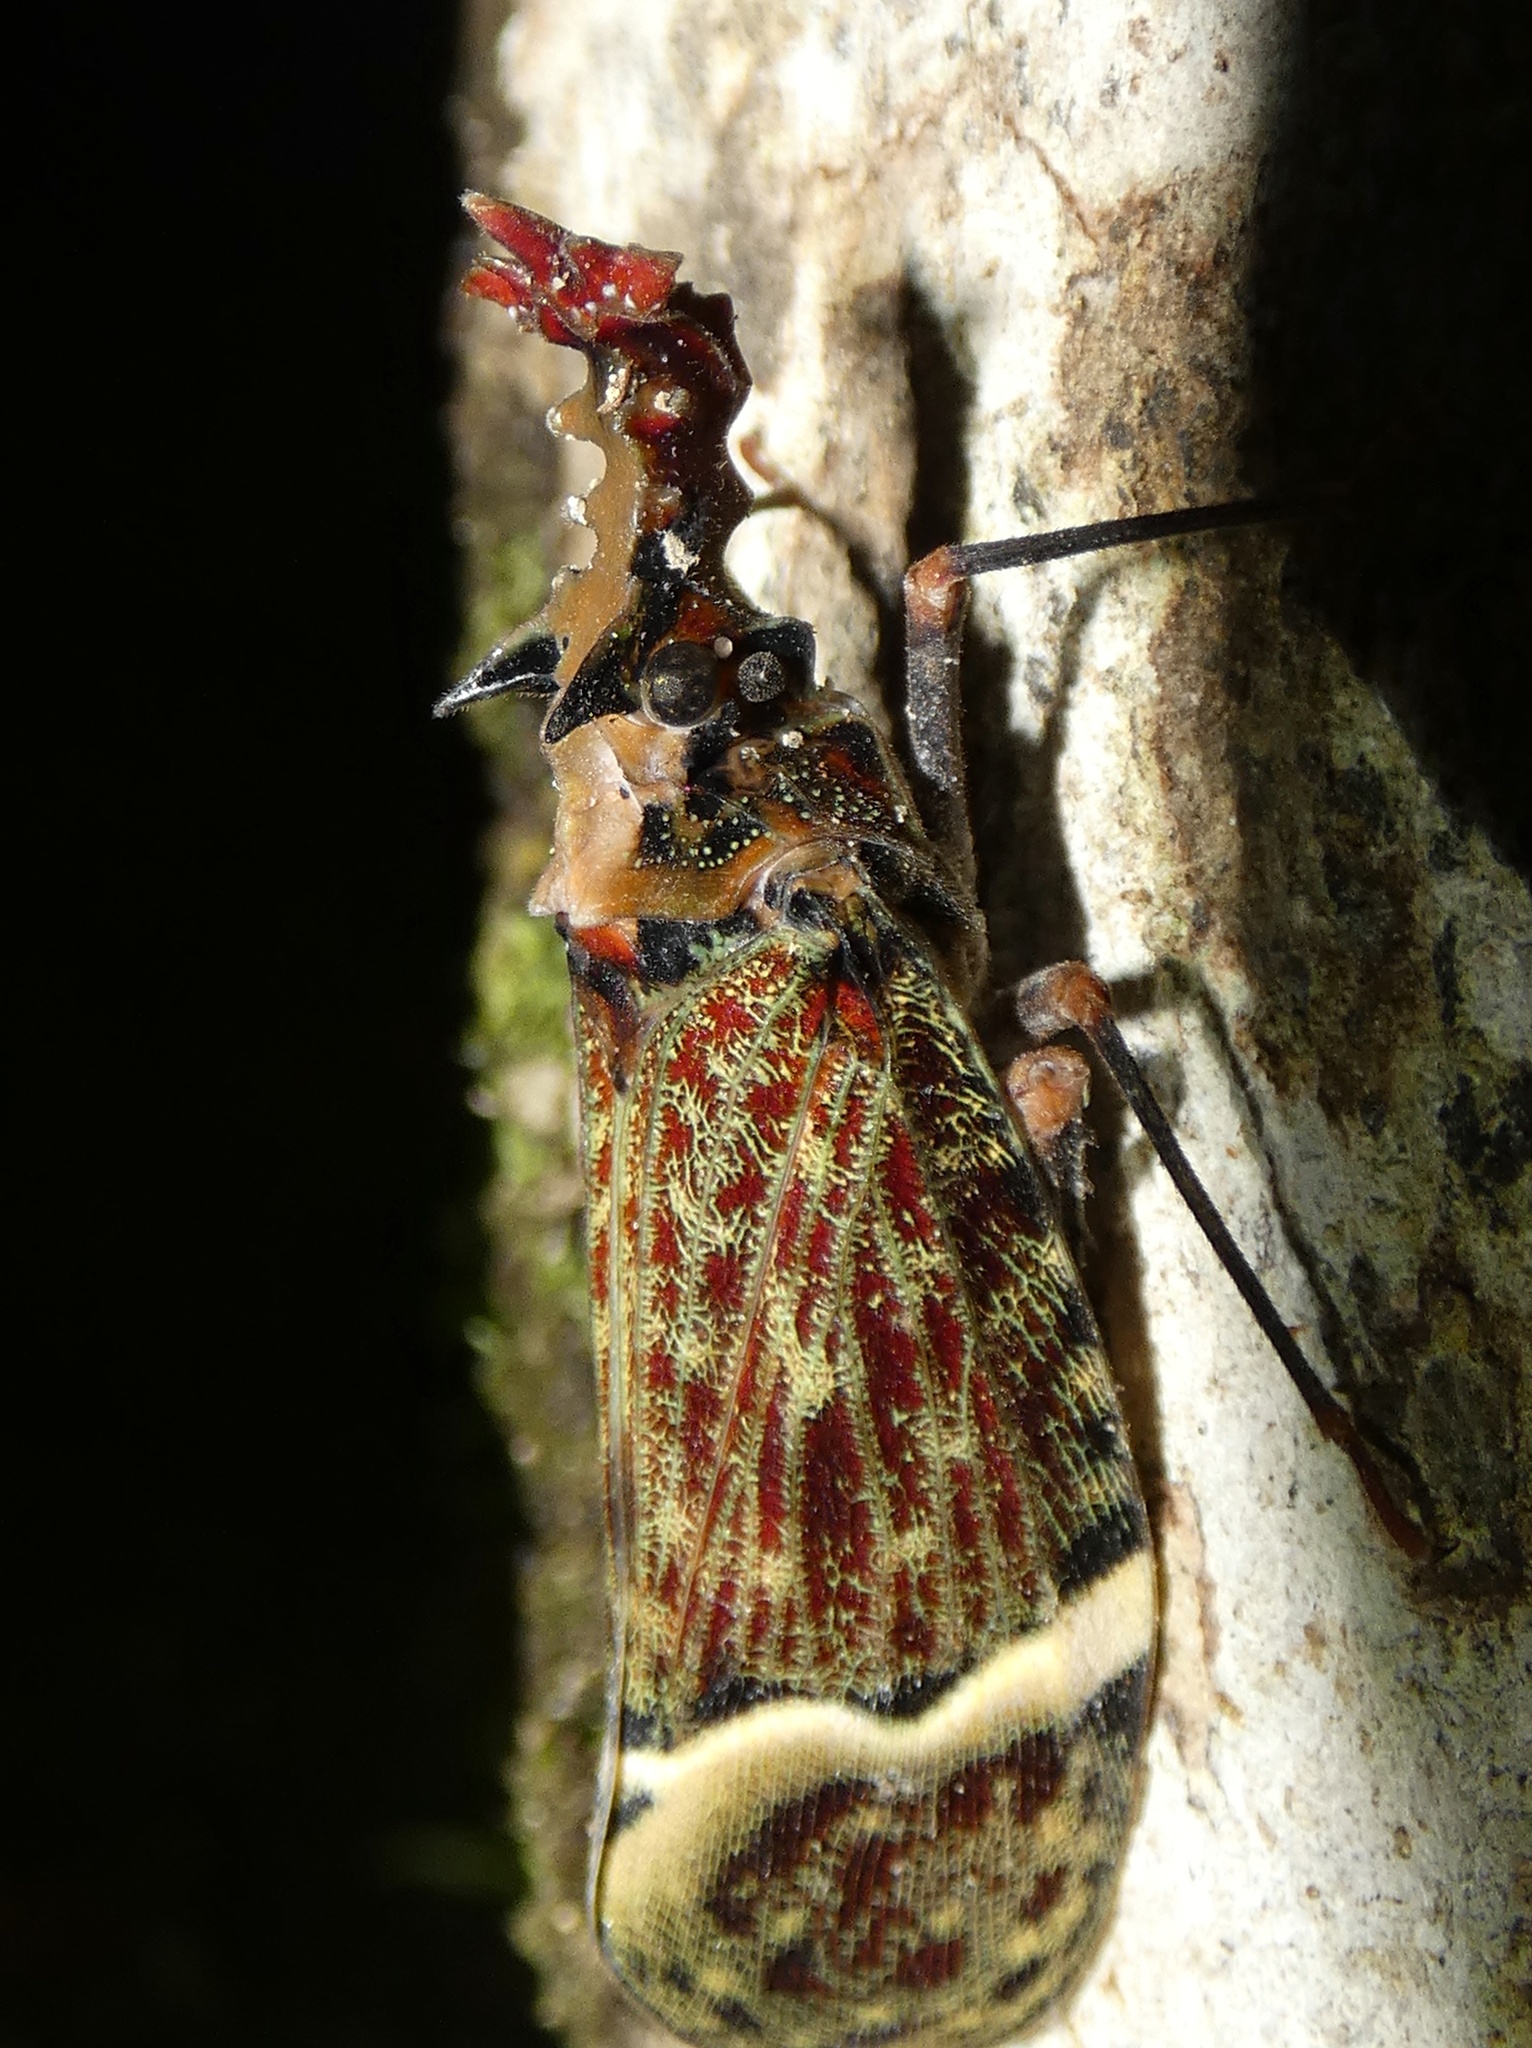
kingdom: Animalia
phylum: Arthropoda
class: Insecta
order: Hemiptera
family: Fulgoridae
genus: Phrictus
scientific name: Phrictus quinquepartitus
